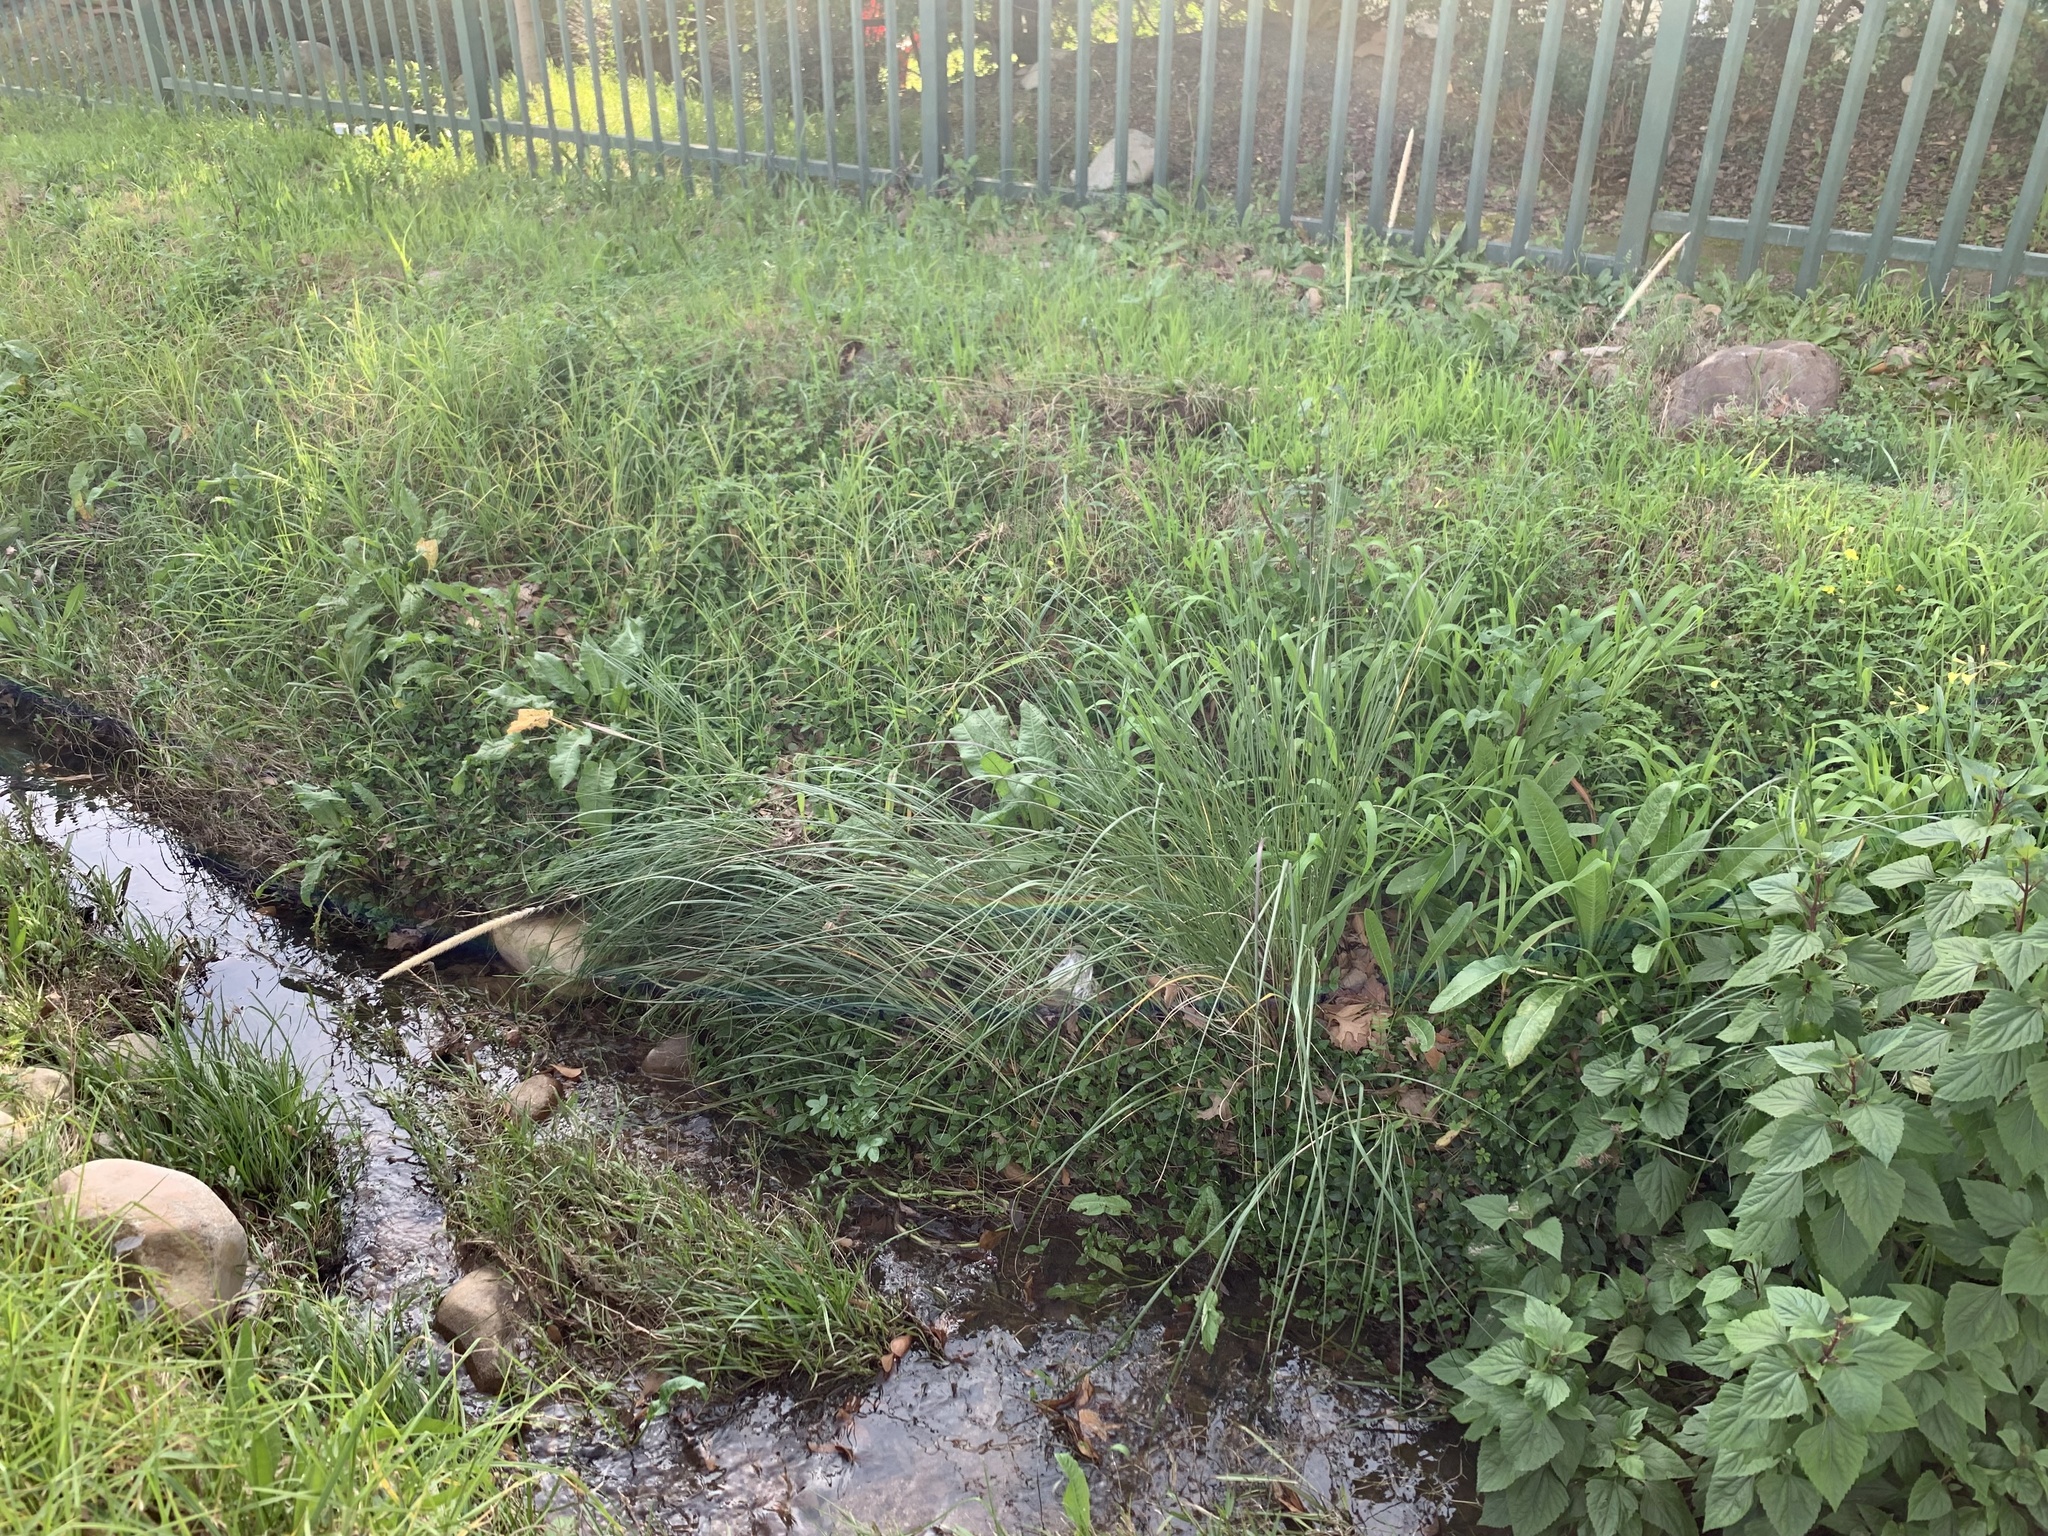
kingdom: Plantae
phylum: Tracheophyta
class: Liliopsida
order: Poales
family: Poaceae
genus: Cenchrus
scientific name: Cenchrus caudatus
